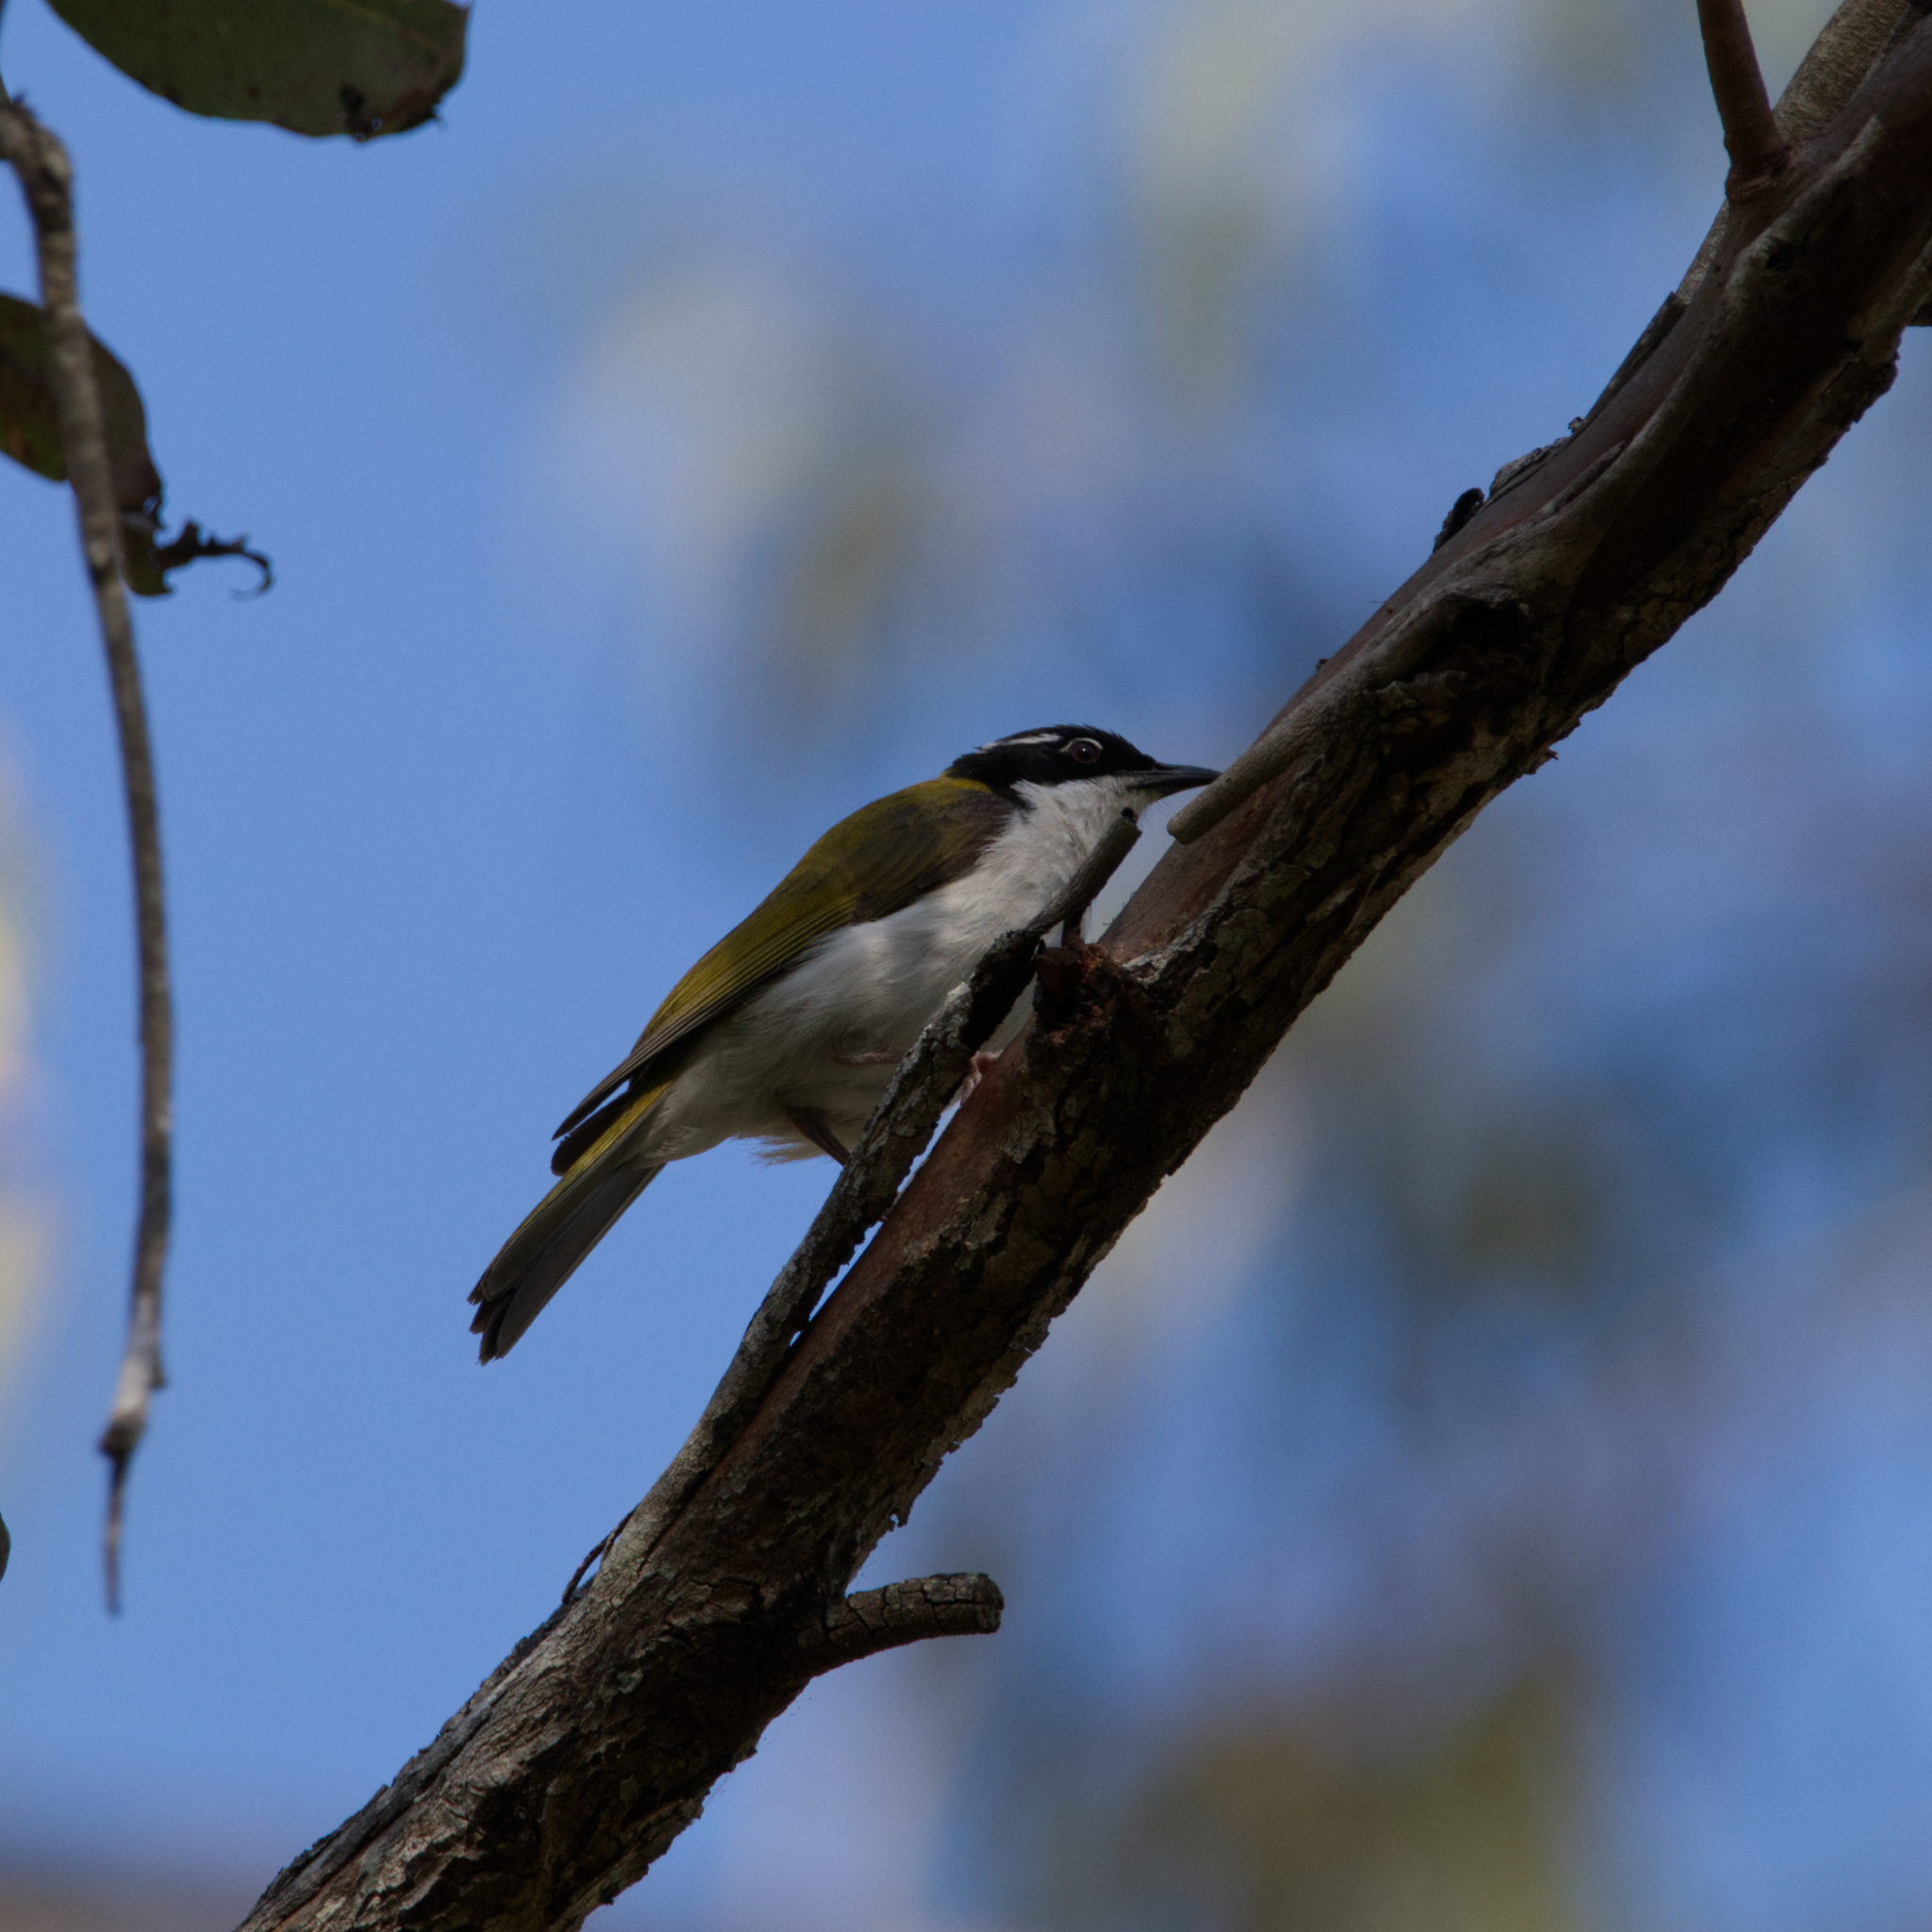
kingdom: Animalia
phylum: Chordata
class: Aves
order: Passeriformes
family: Meliphagidae
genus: Melithreptus
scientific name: Melithreptus albogularis
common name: White-throated honeyeater
